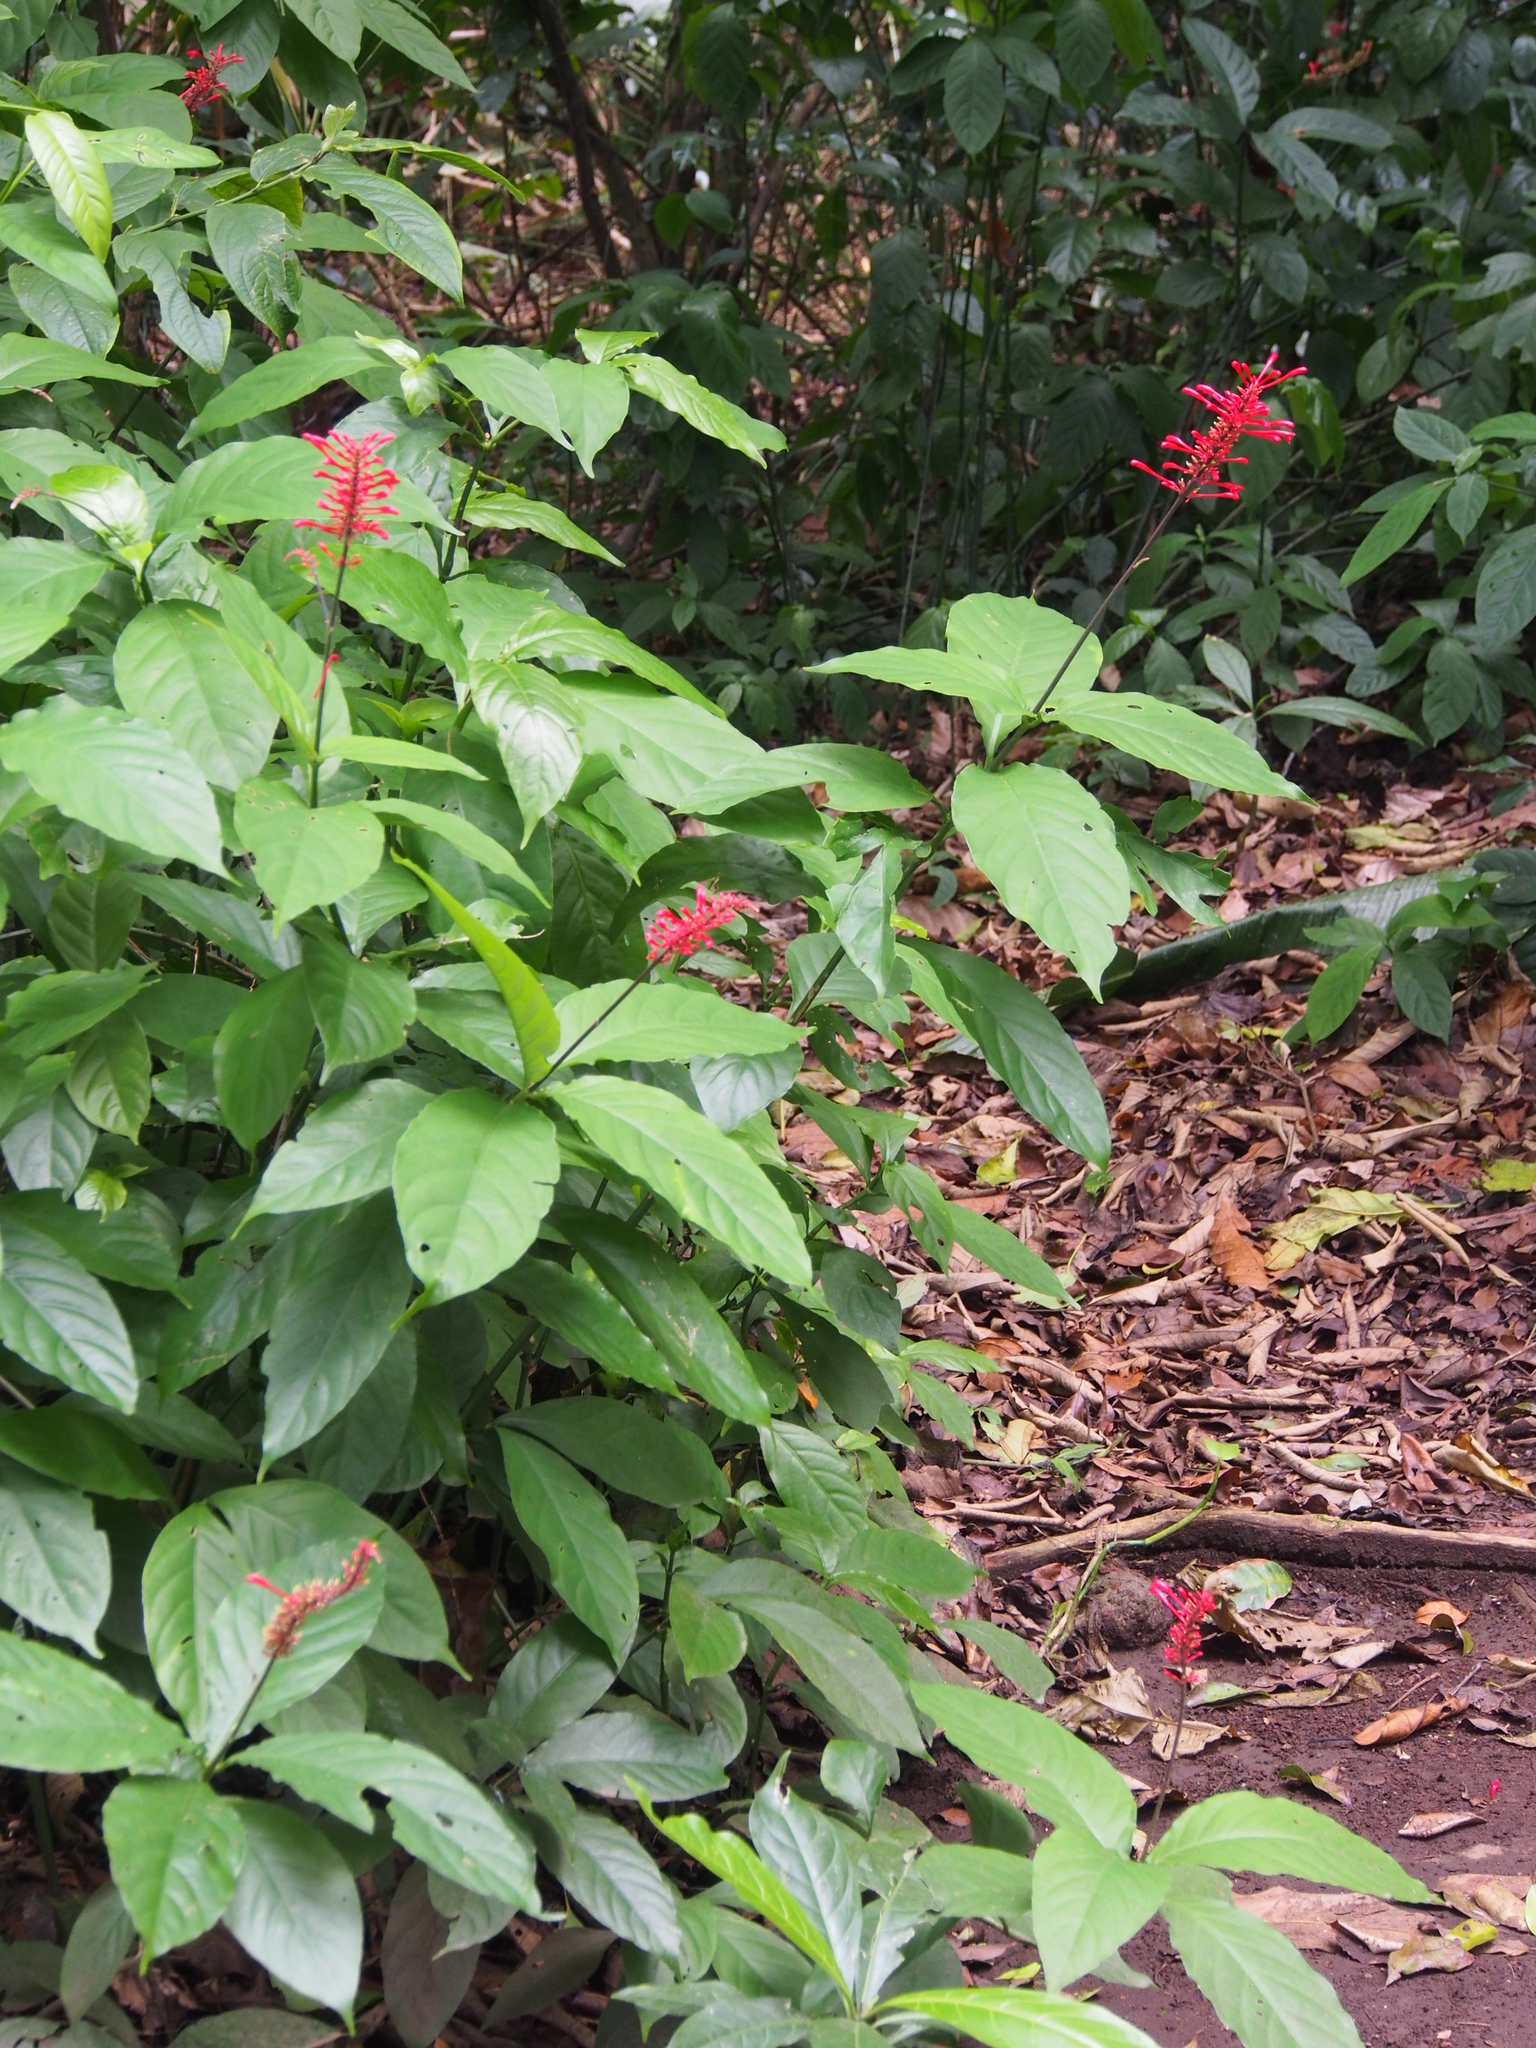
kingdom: Plantae
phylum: Tracheophyta
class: Magnoliopsida
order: Lamiales
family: Acanthaceae
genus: Odontonema
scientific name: Odontonema tubaeforme
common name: Firespike
